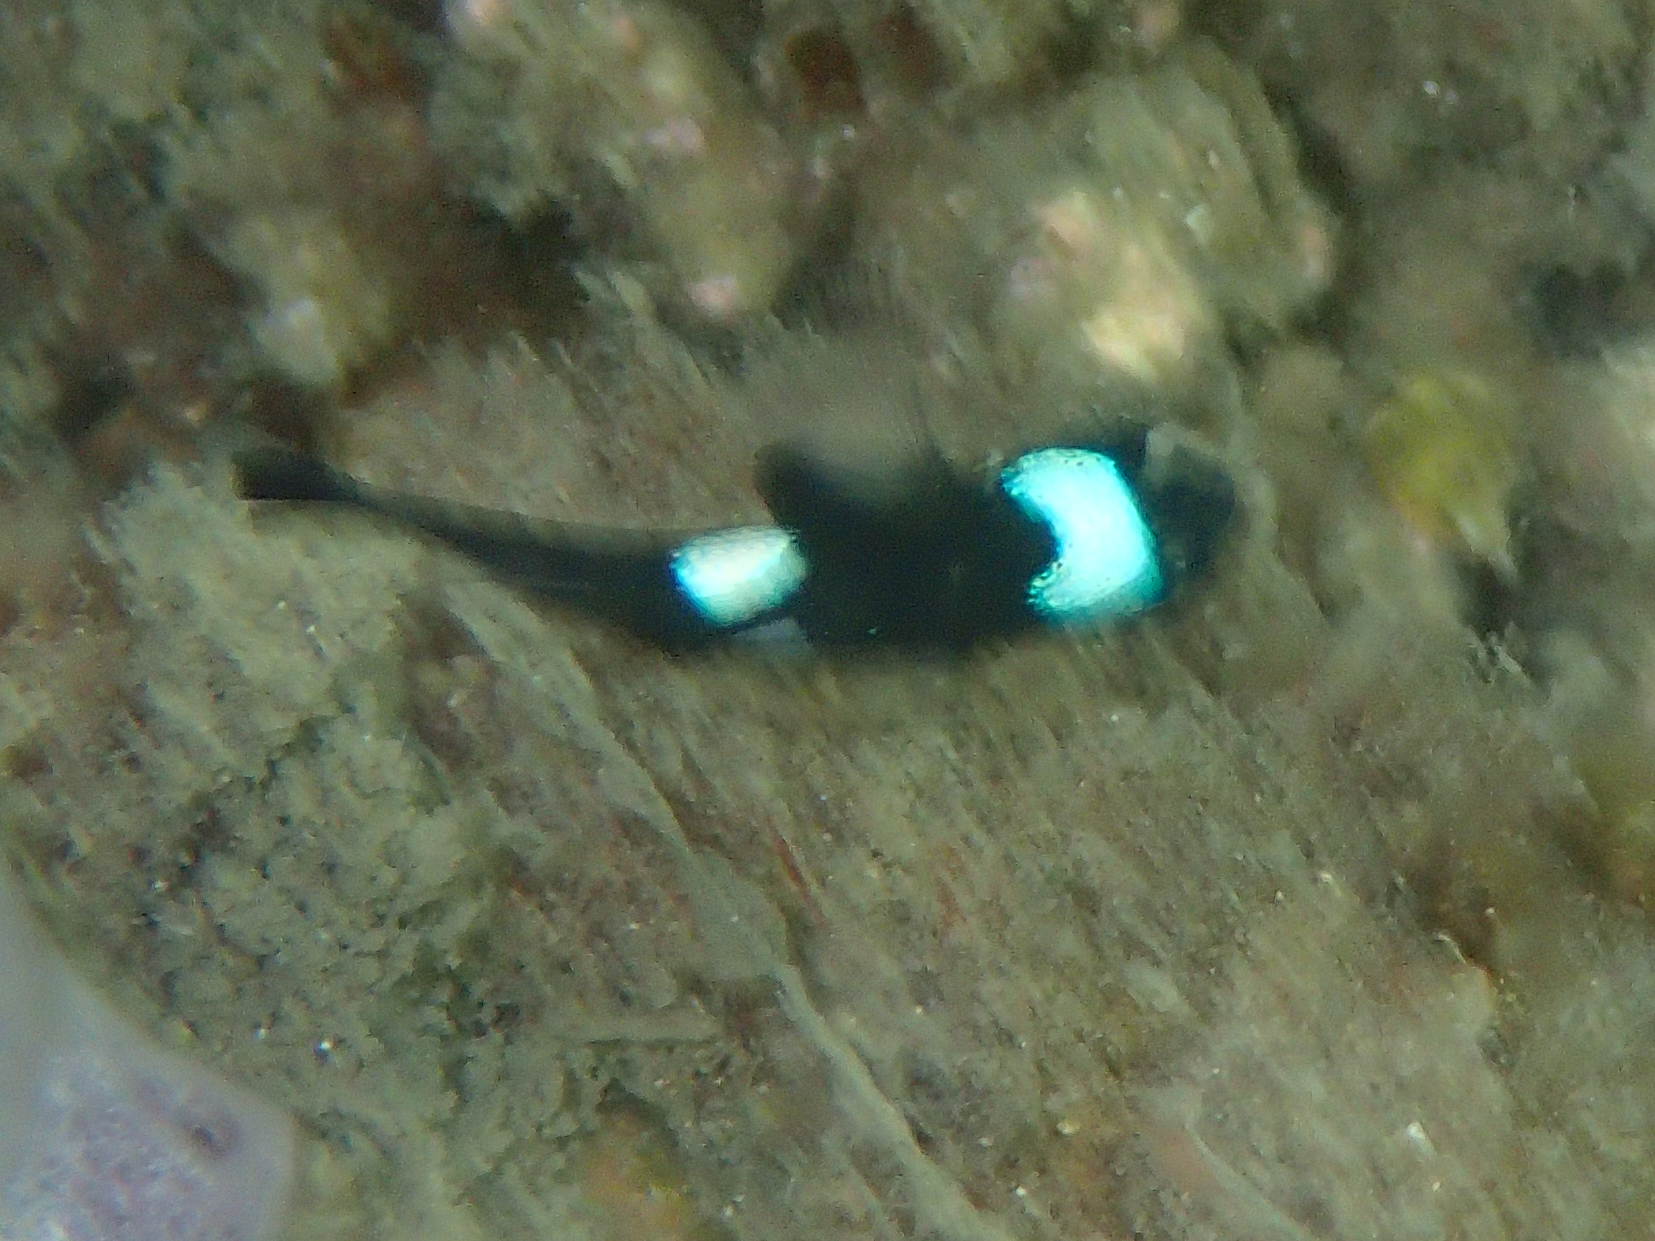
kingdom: Animalia
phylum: Chordata
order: Perciformes
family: Pomacentridae
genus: Dascyllus
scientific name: Dascyllus trimaculatus
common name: Threespot dascyllus
